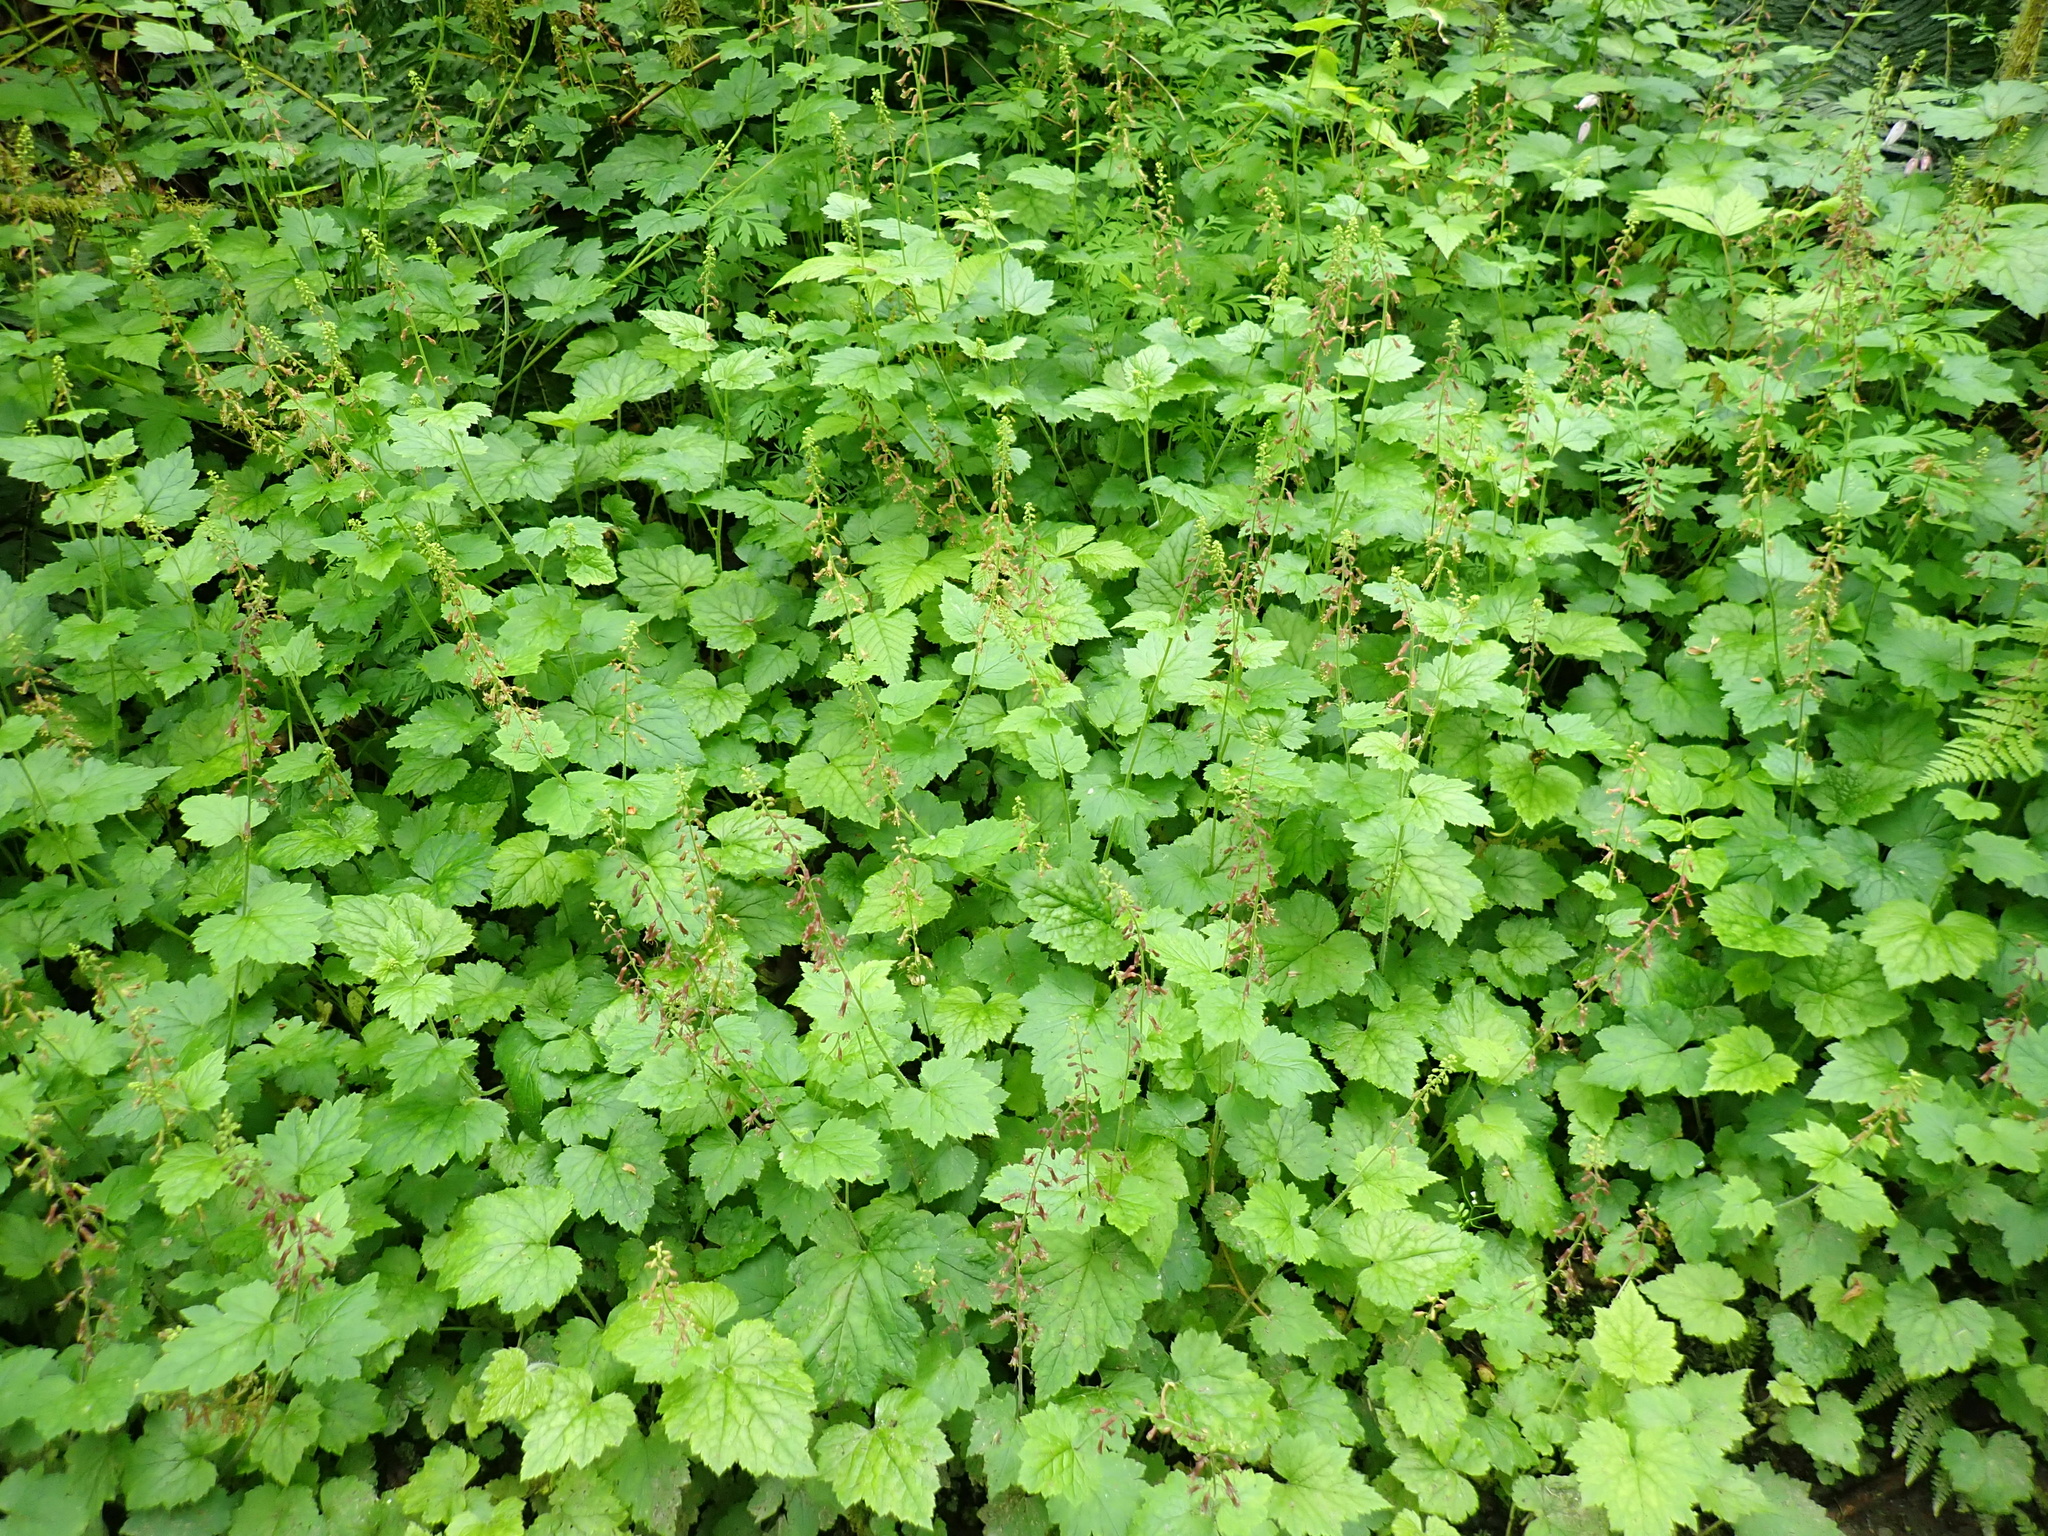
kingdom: Plantae
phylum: Tracheophyta
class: Magnoliopsida
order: Saxifragales
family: Saxifragaceae
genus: Tolmiea
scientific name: Tolmiea menziesii
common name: Pick-a-back-plant
